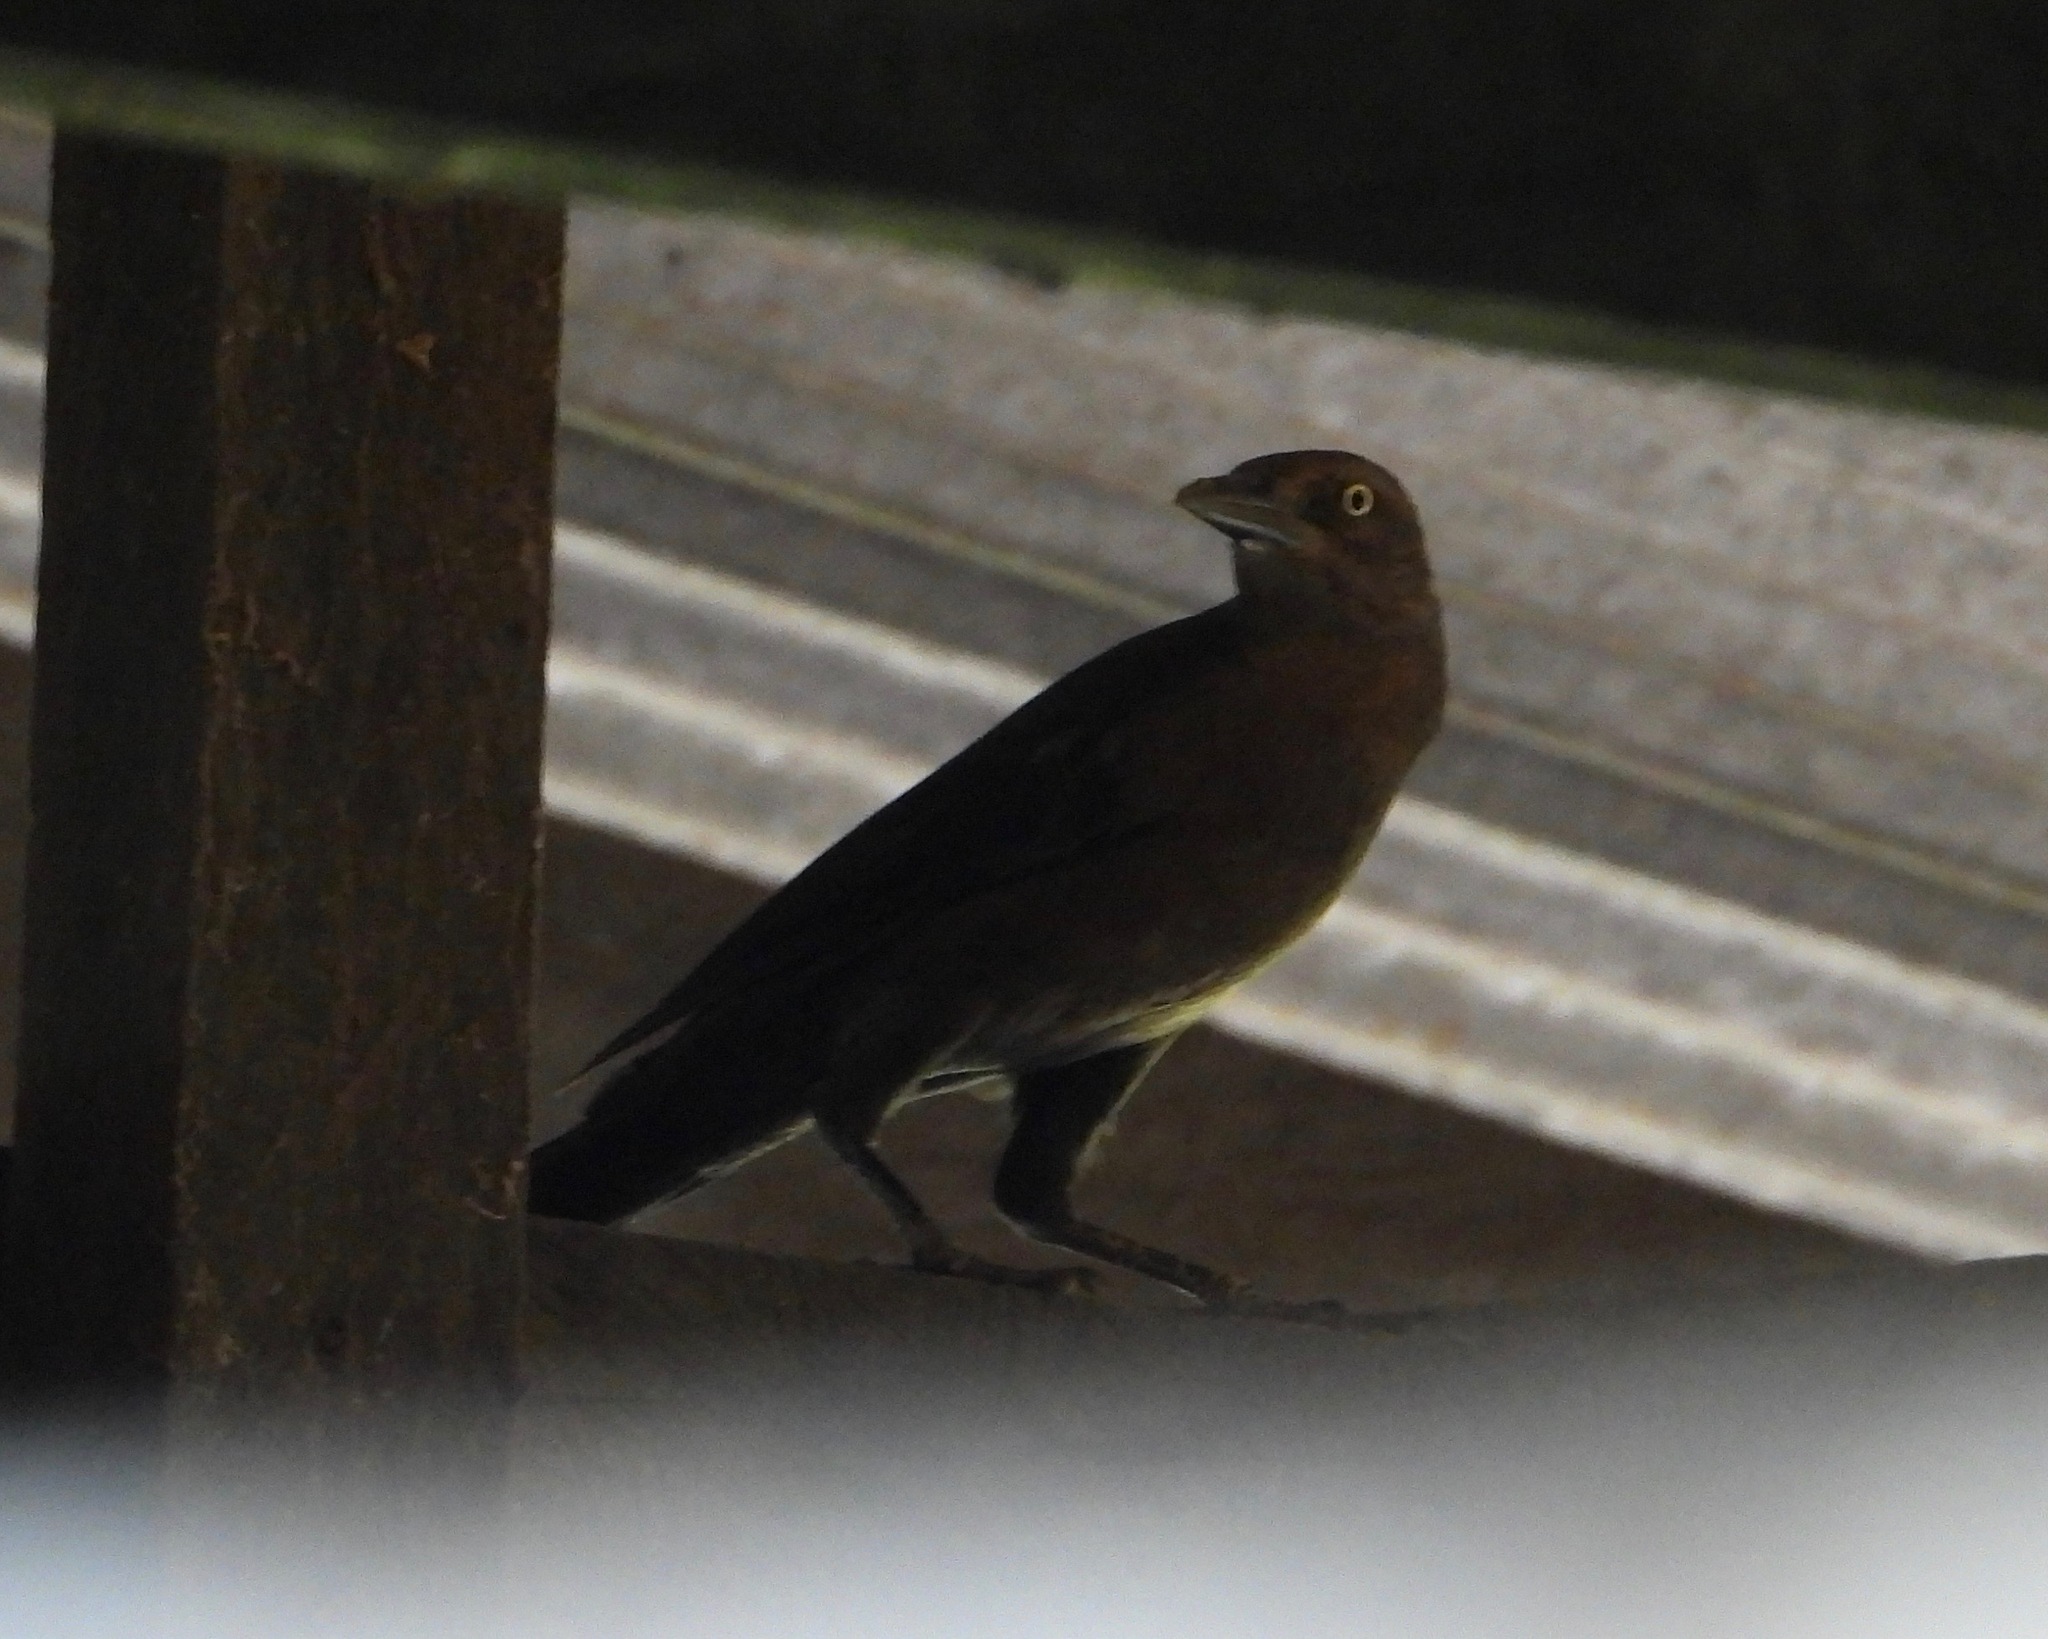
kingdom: Animalia
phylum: Chordata
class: Aves
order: Passeriformes
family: Icteridae
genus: Quiscalus
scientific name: Quiscalus mexicanus
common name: Great-tailed grackle
